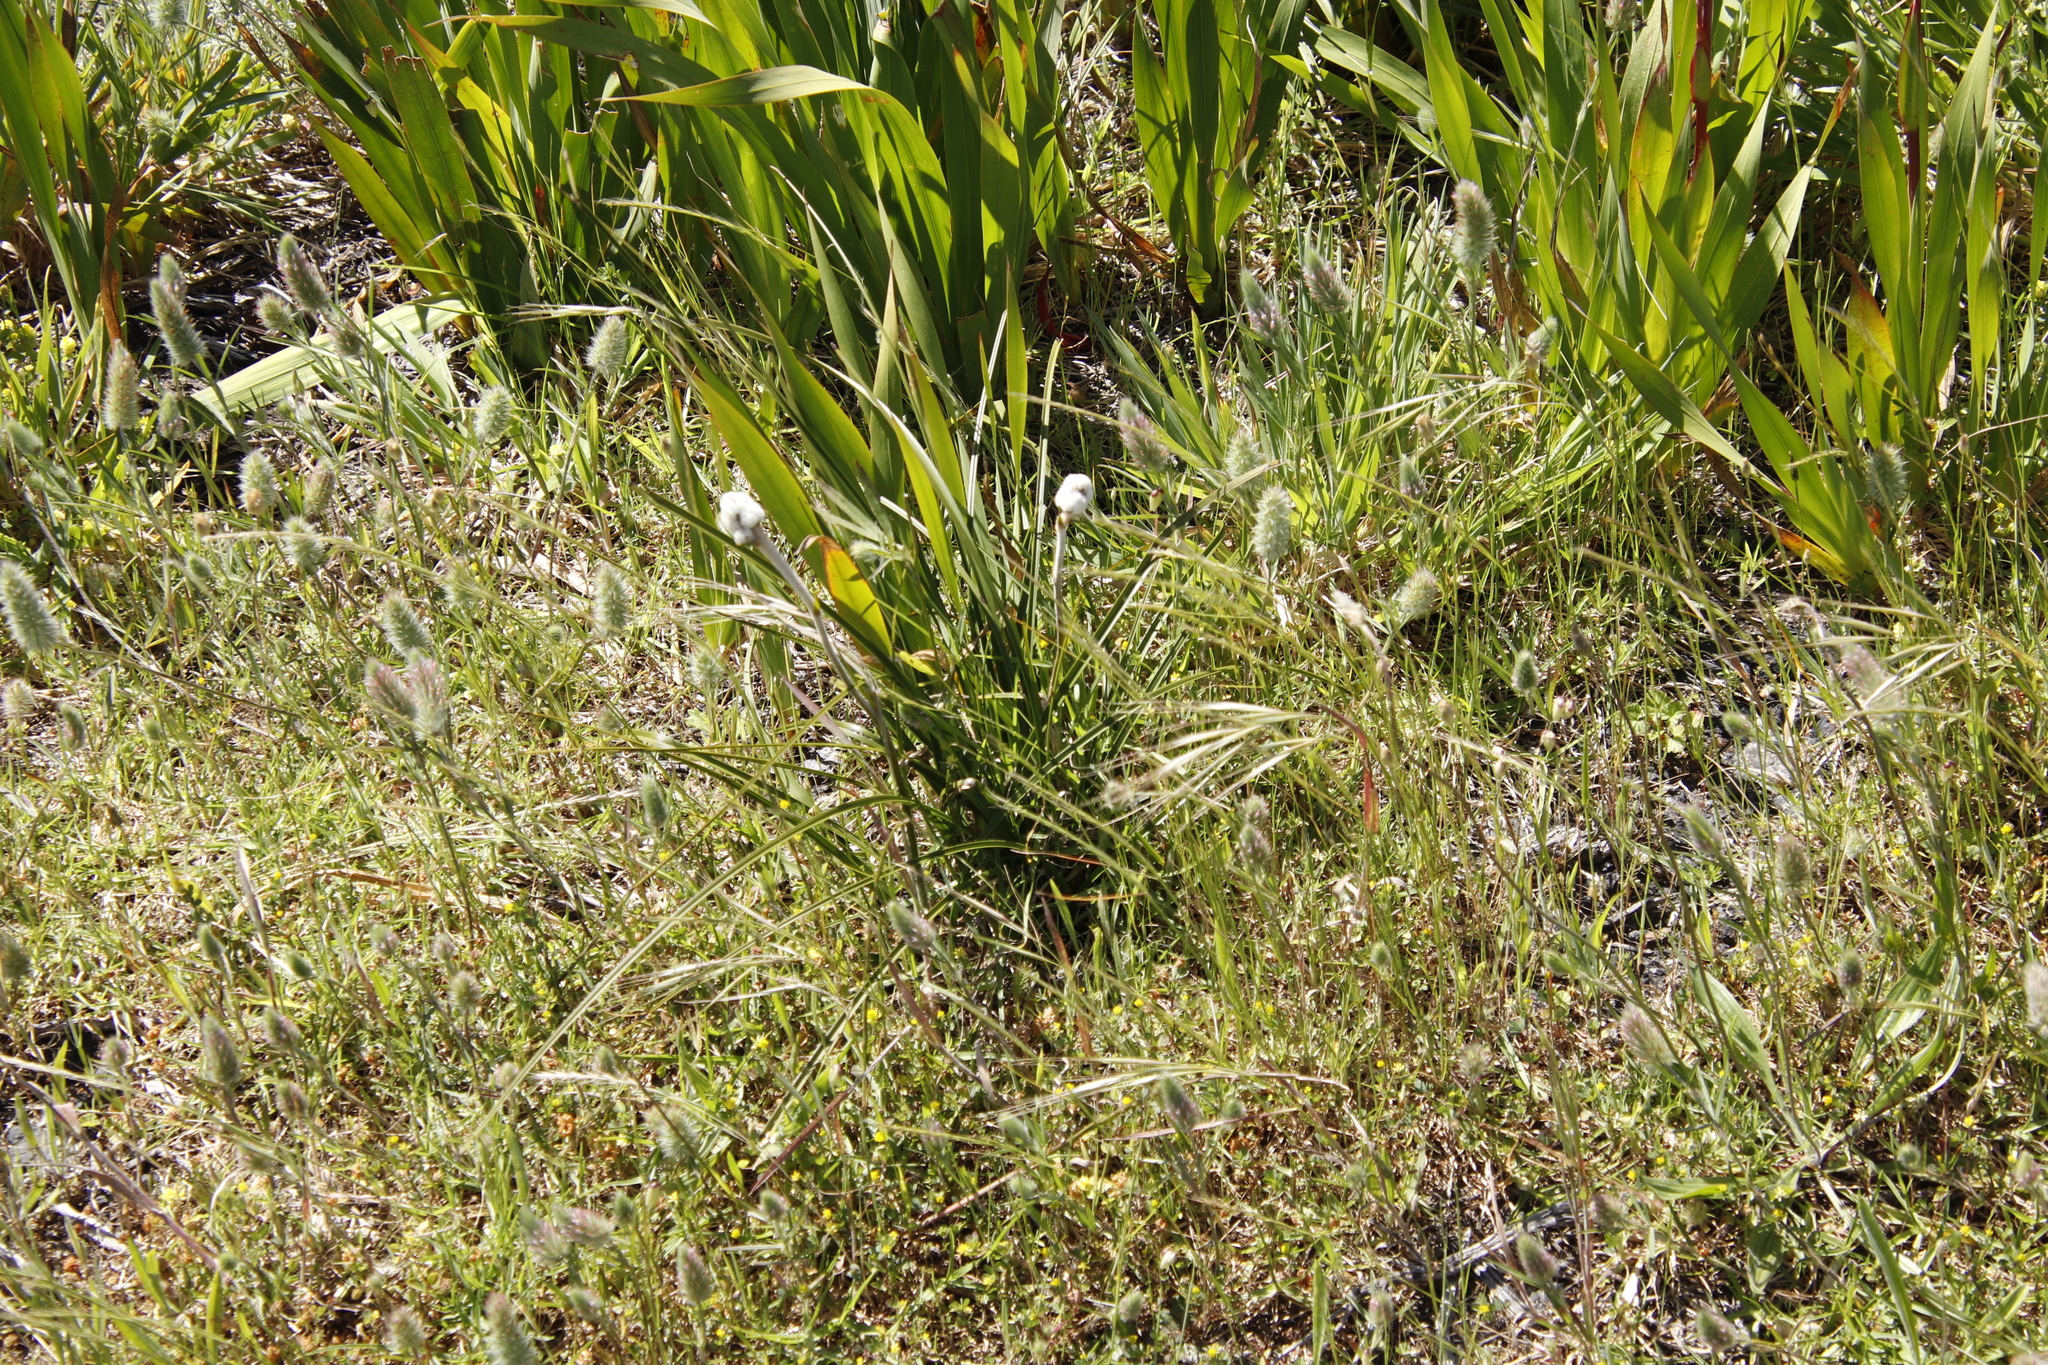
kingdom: Plantae
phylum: Tracheophyta
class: Liliopsida
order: Asparagales
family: Lanariaceae
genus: Lanaria
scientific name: Lanaria lanata
